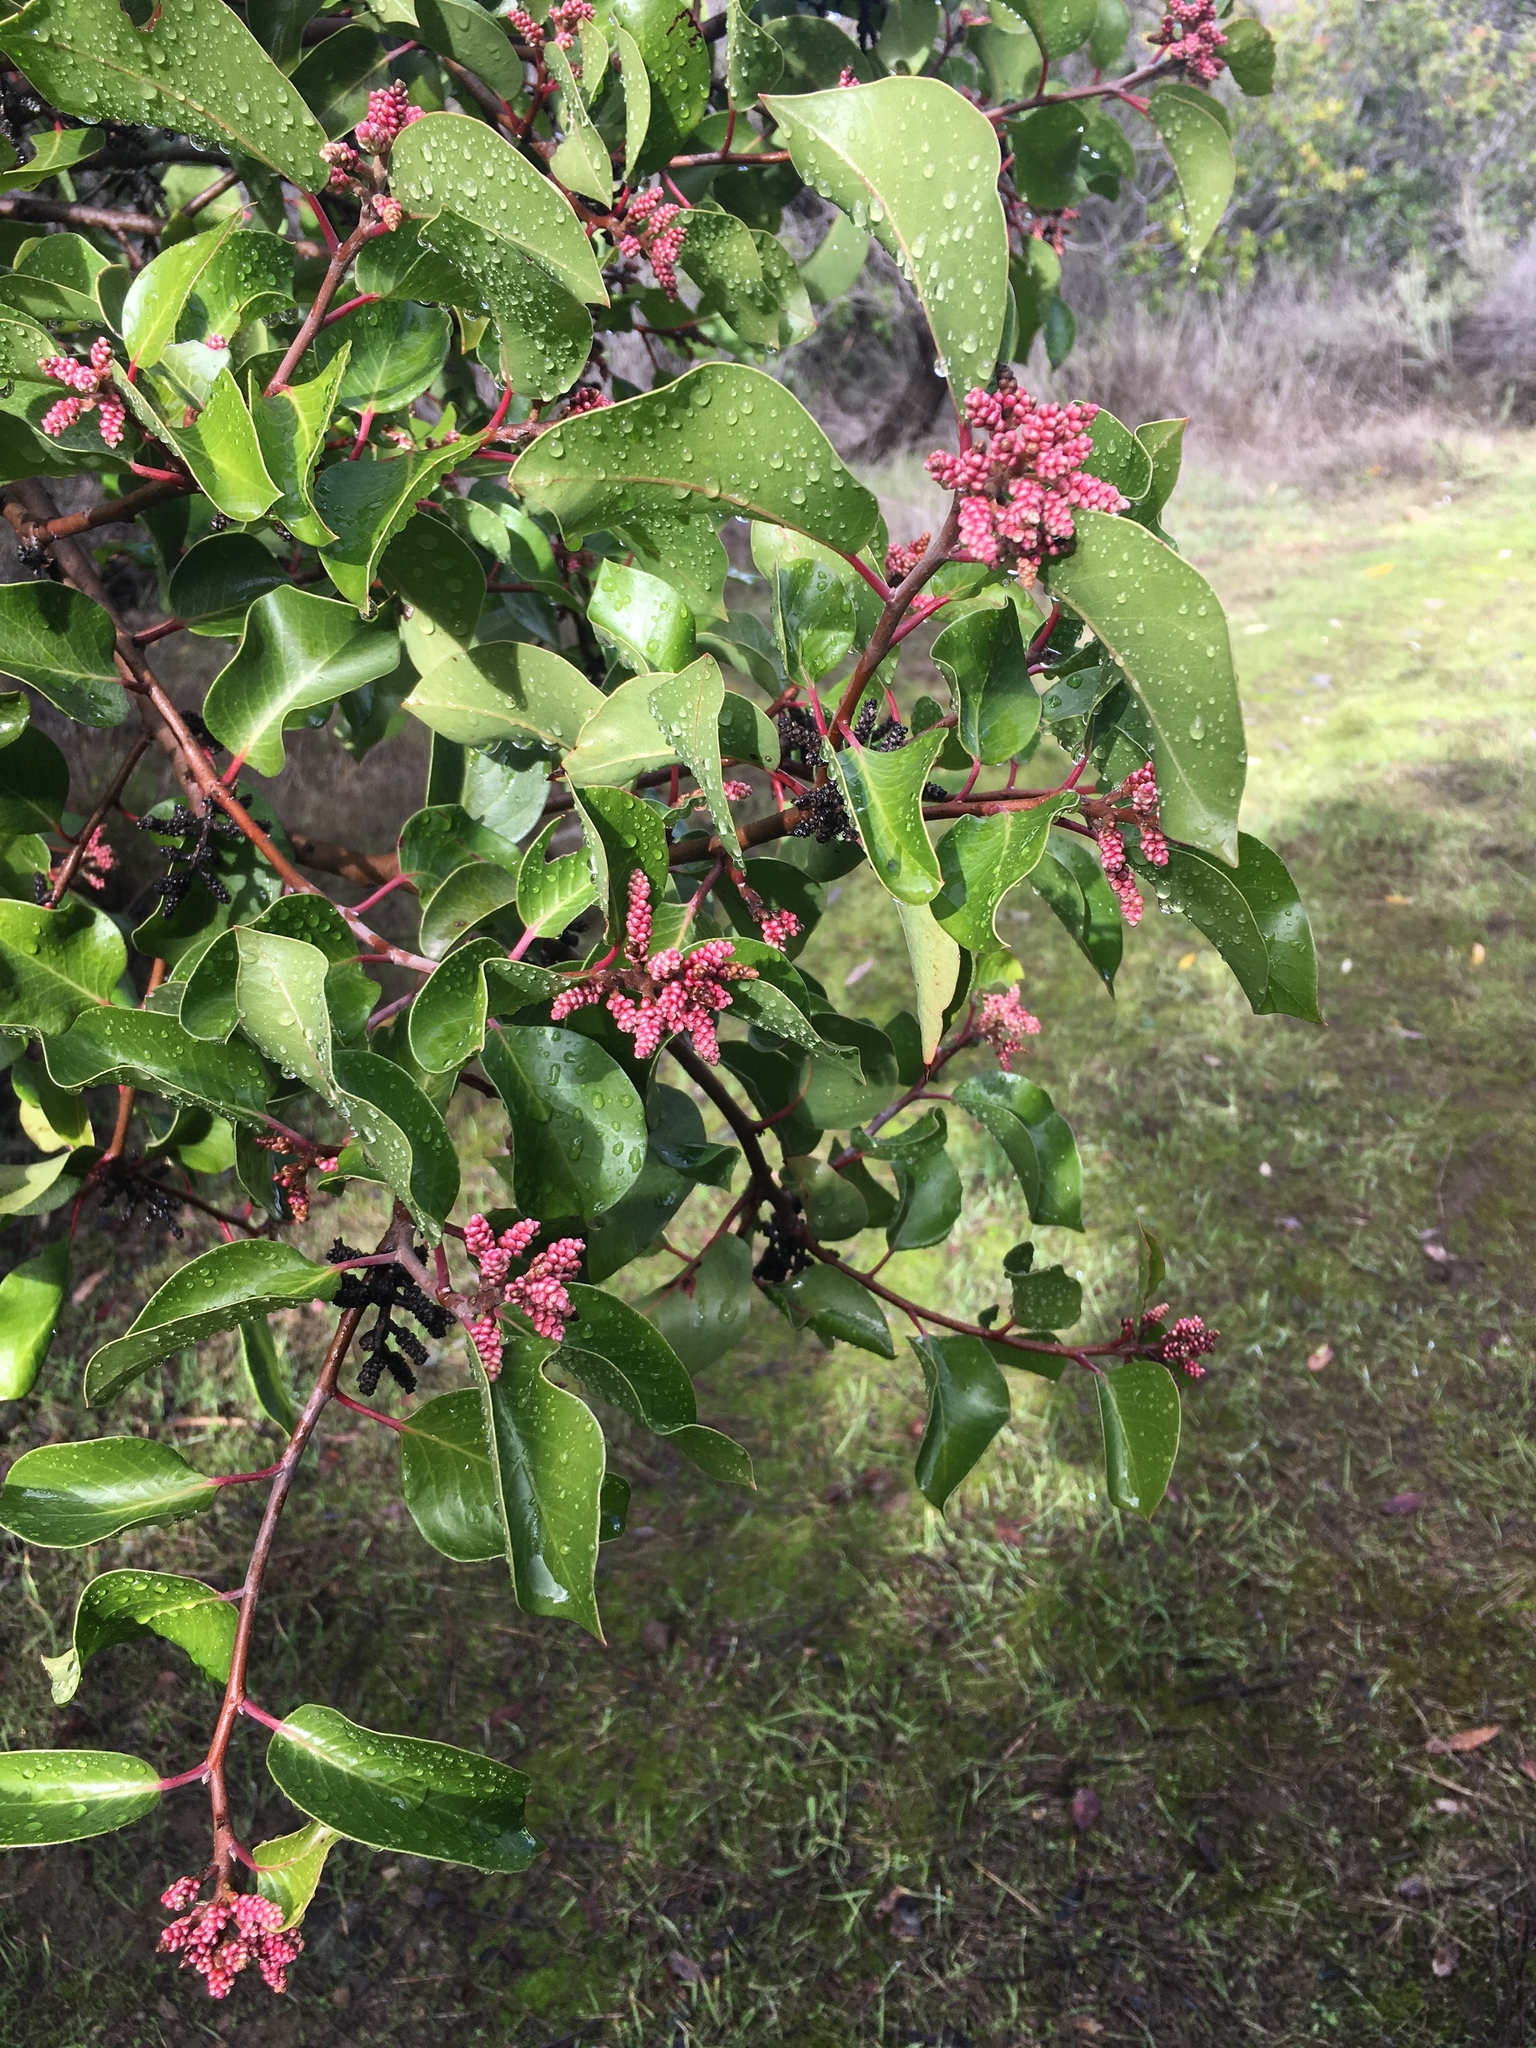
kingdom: Plantae
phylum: Tracheophyta
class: Magnoliopsida
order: Sapindales
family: Anacardiaceae
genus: Rhus
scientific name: Rhus ovata
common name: Sugar sumac
